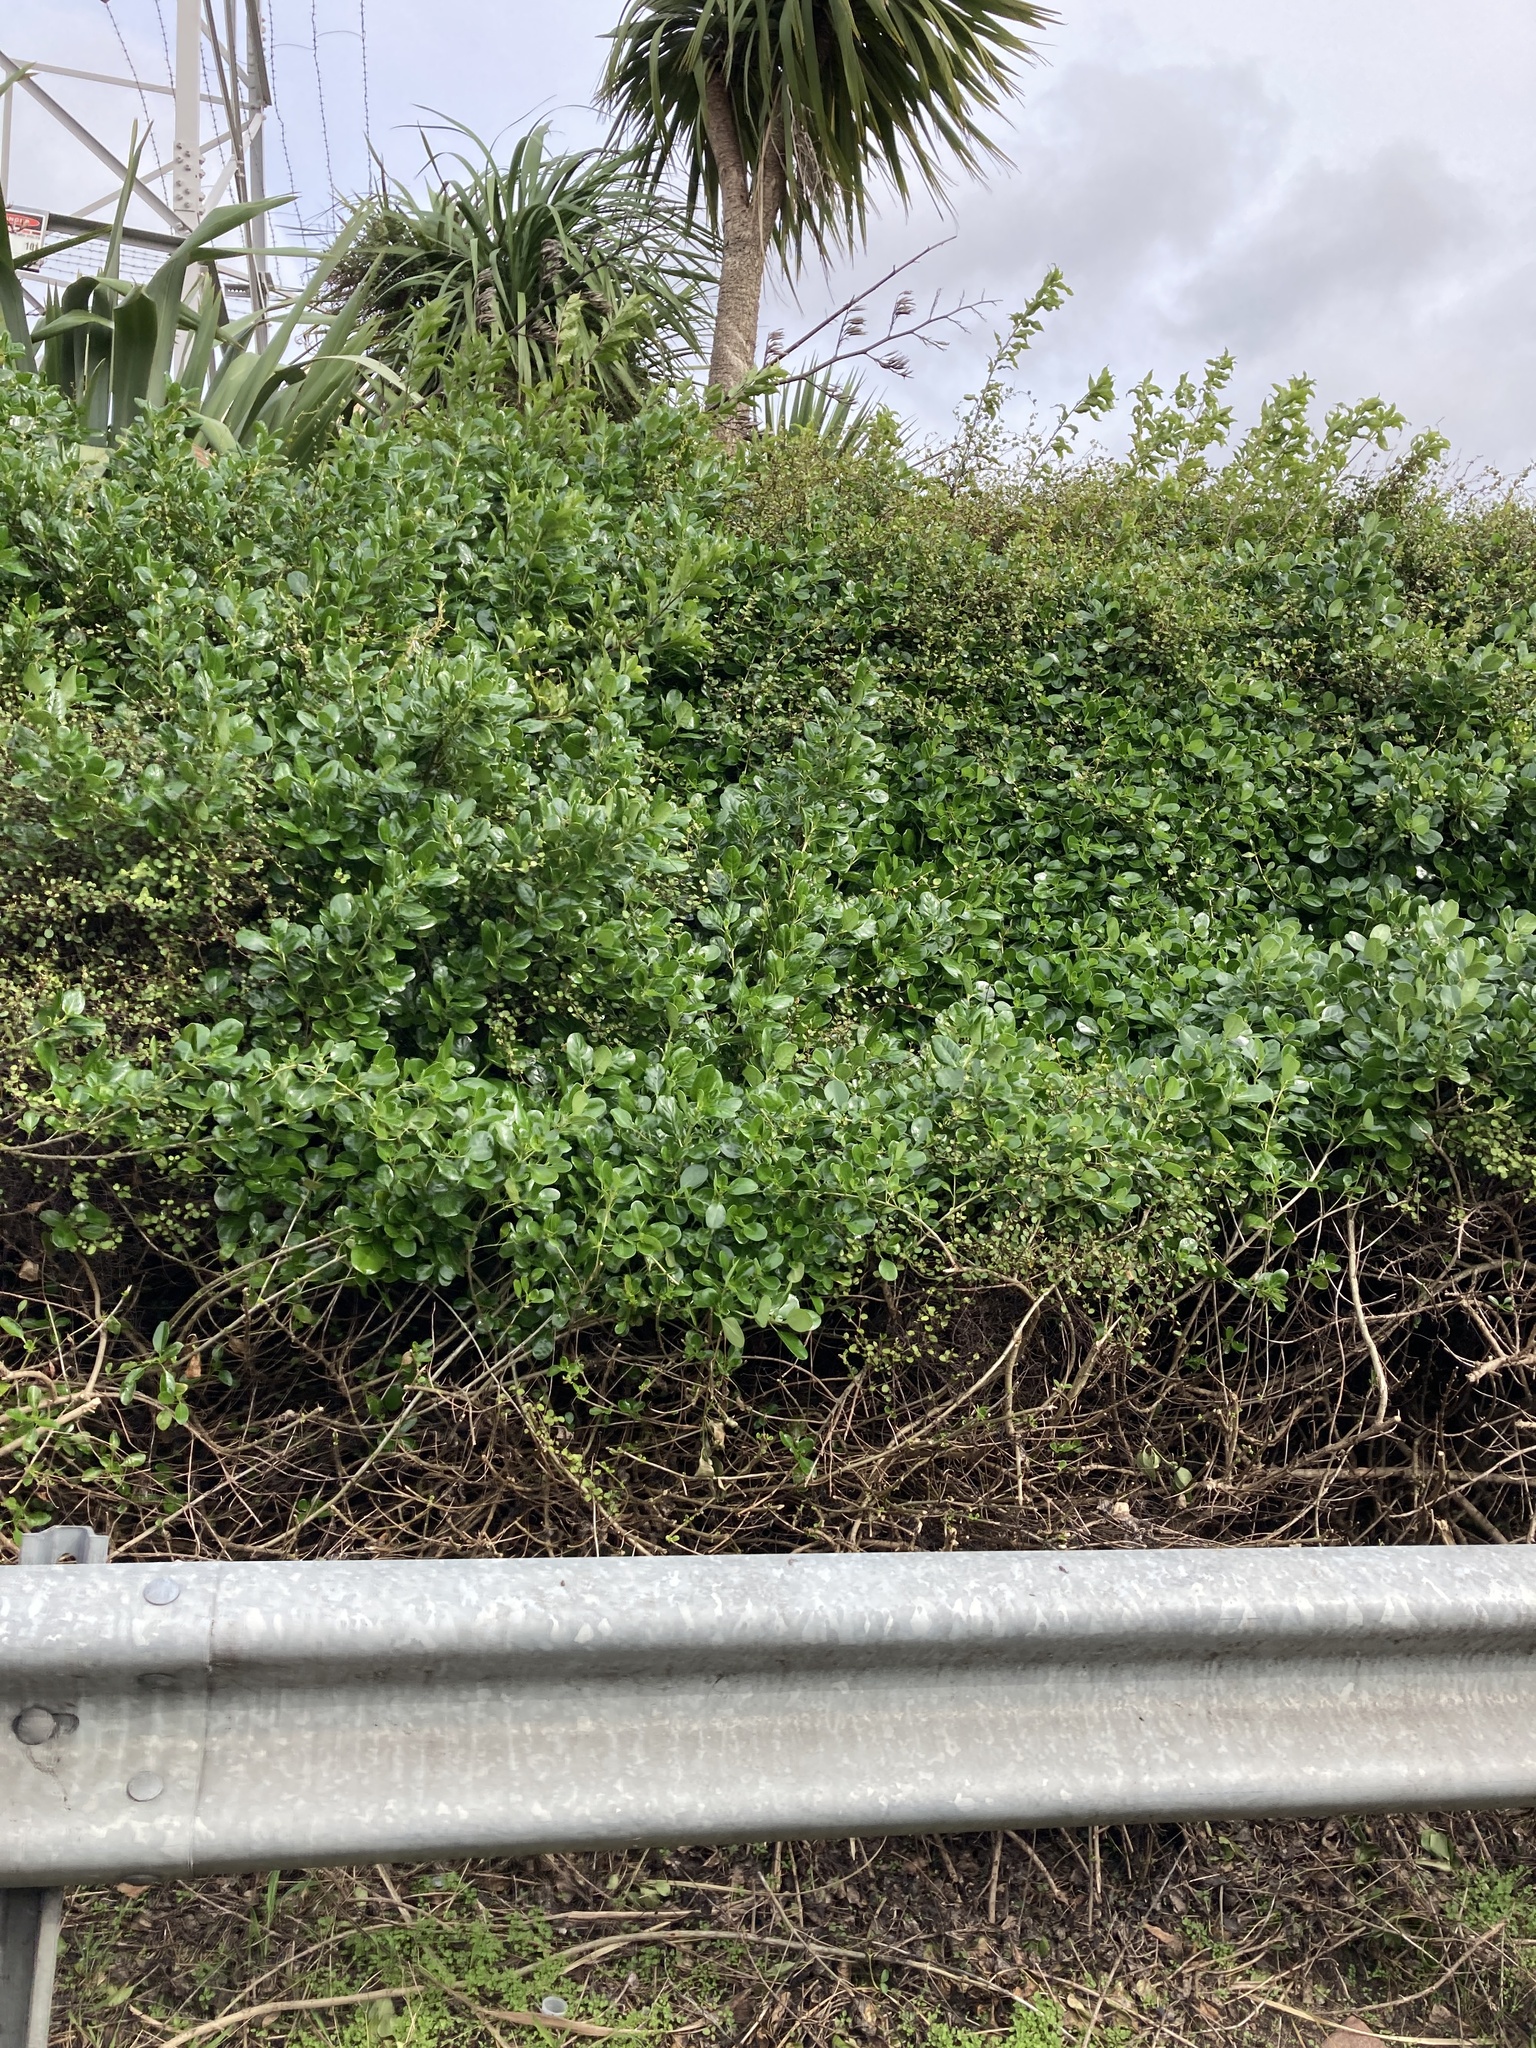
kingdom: Plantae
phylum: Tracheophyta
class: Magnoliopsida
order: Gentianales
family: Rubiaceae
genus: Coprosma
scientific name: Coprosma repens
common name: Tree bedstraw
